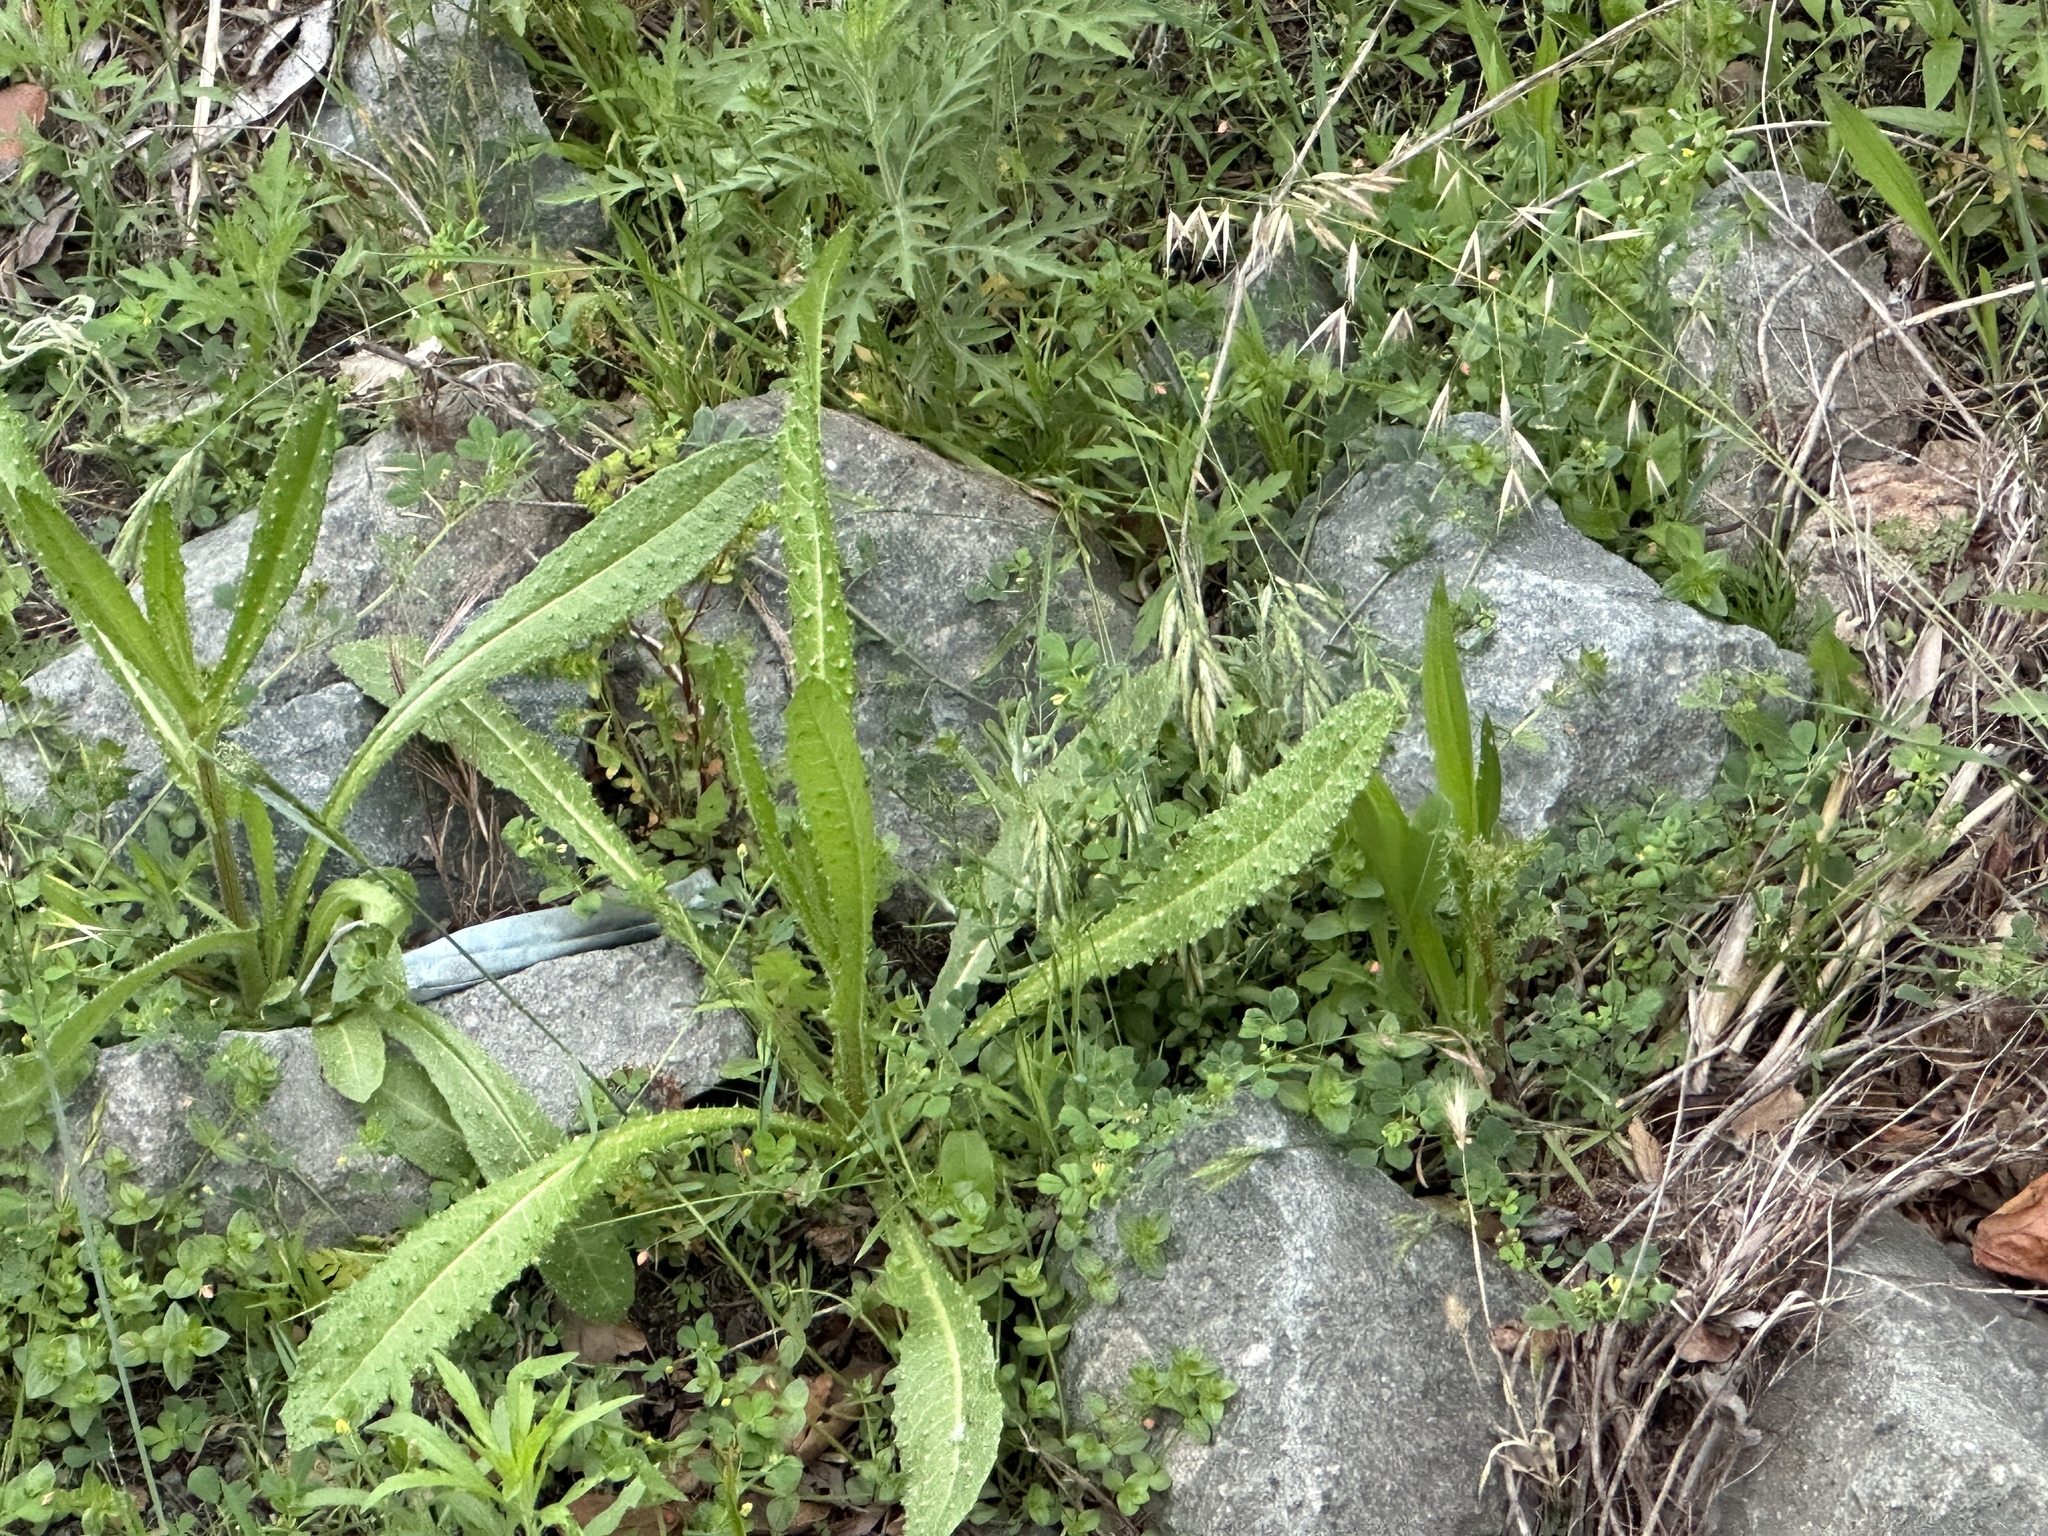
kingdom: Plantae
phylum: Tracheophyta
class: Magnoliopsida
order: Asterales
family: Asteraceae
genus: Helminthotheca
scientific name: Helminthotheca echioides
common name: Ox-tongue
